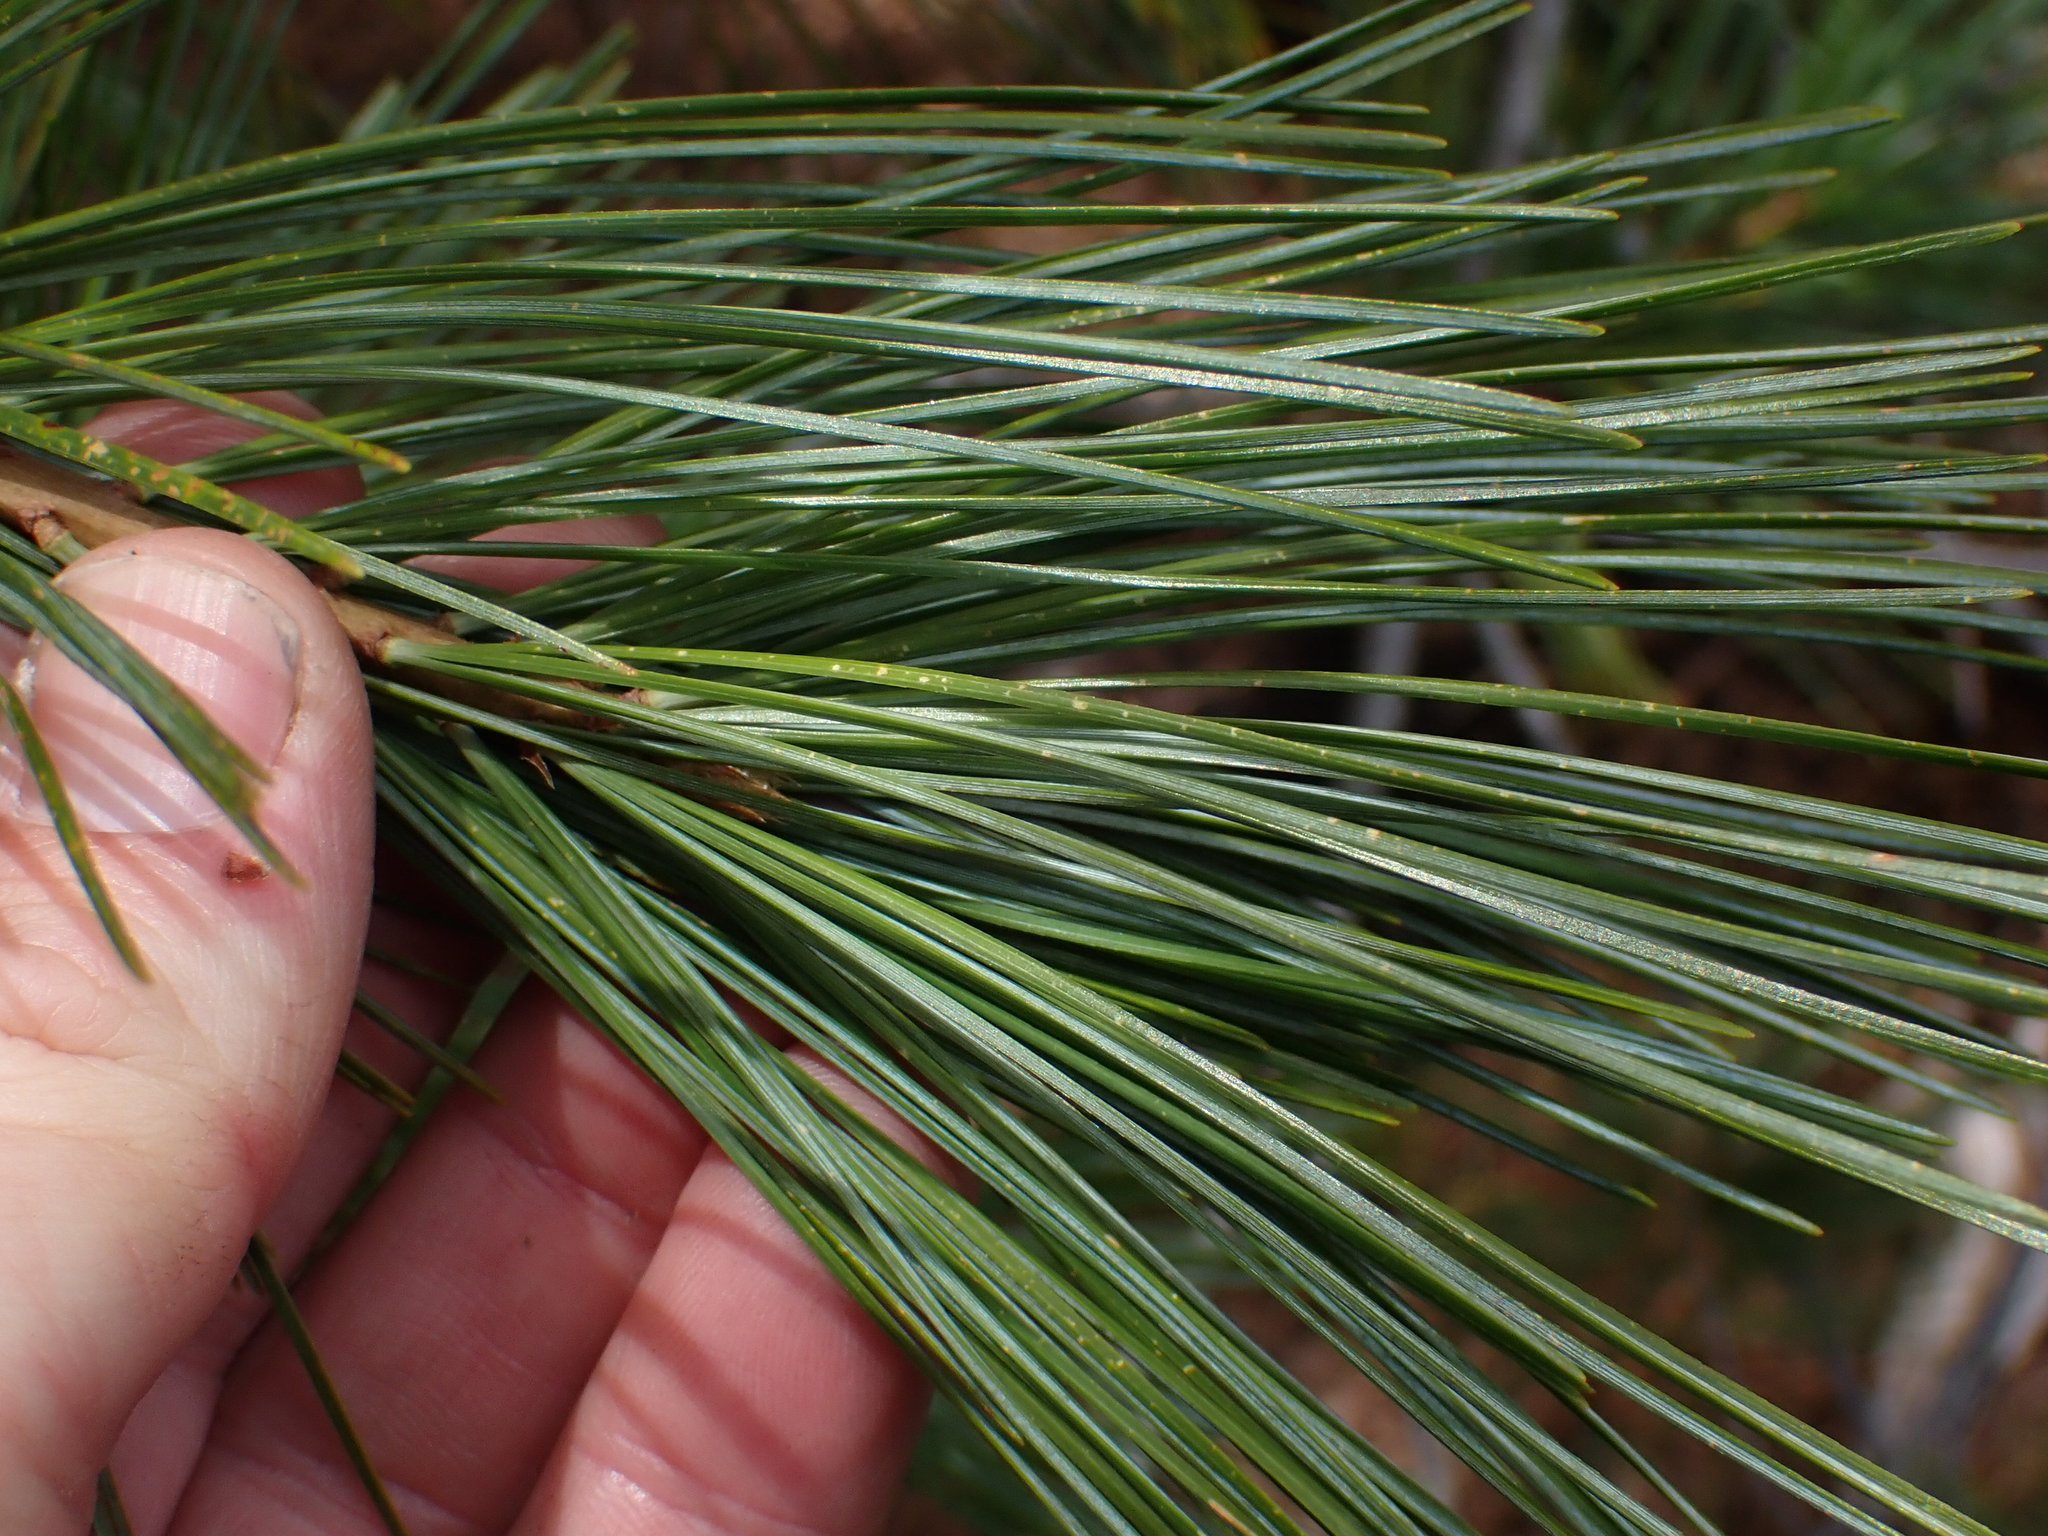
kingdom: Plantae
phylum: Tracheophyta
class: Pinopsida
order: Pinales
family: Pinaceae
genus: Pinus
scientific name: Pinus monticola
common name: Western white pine
